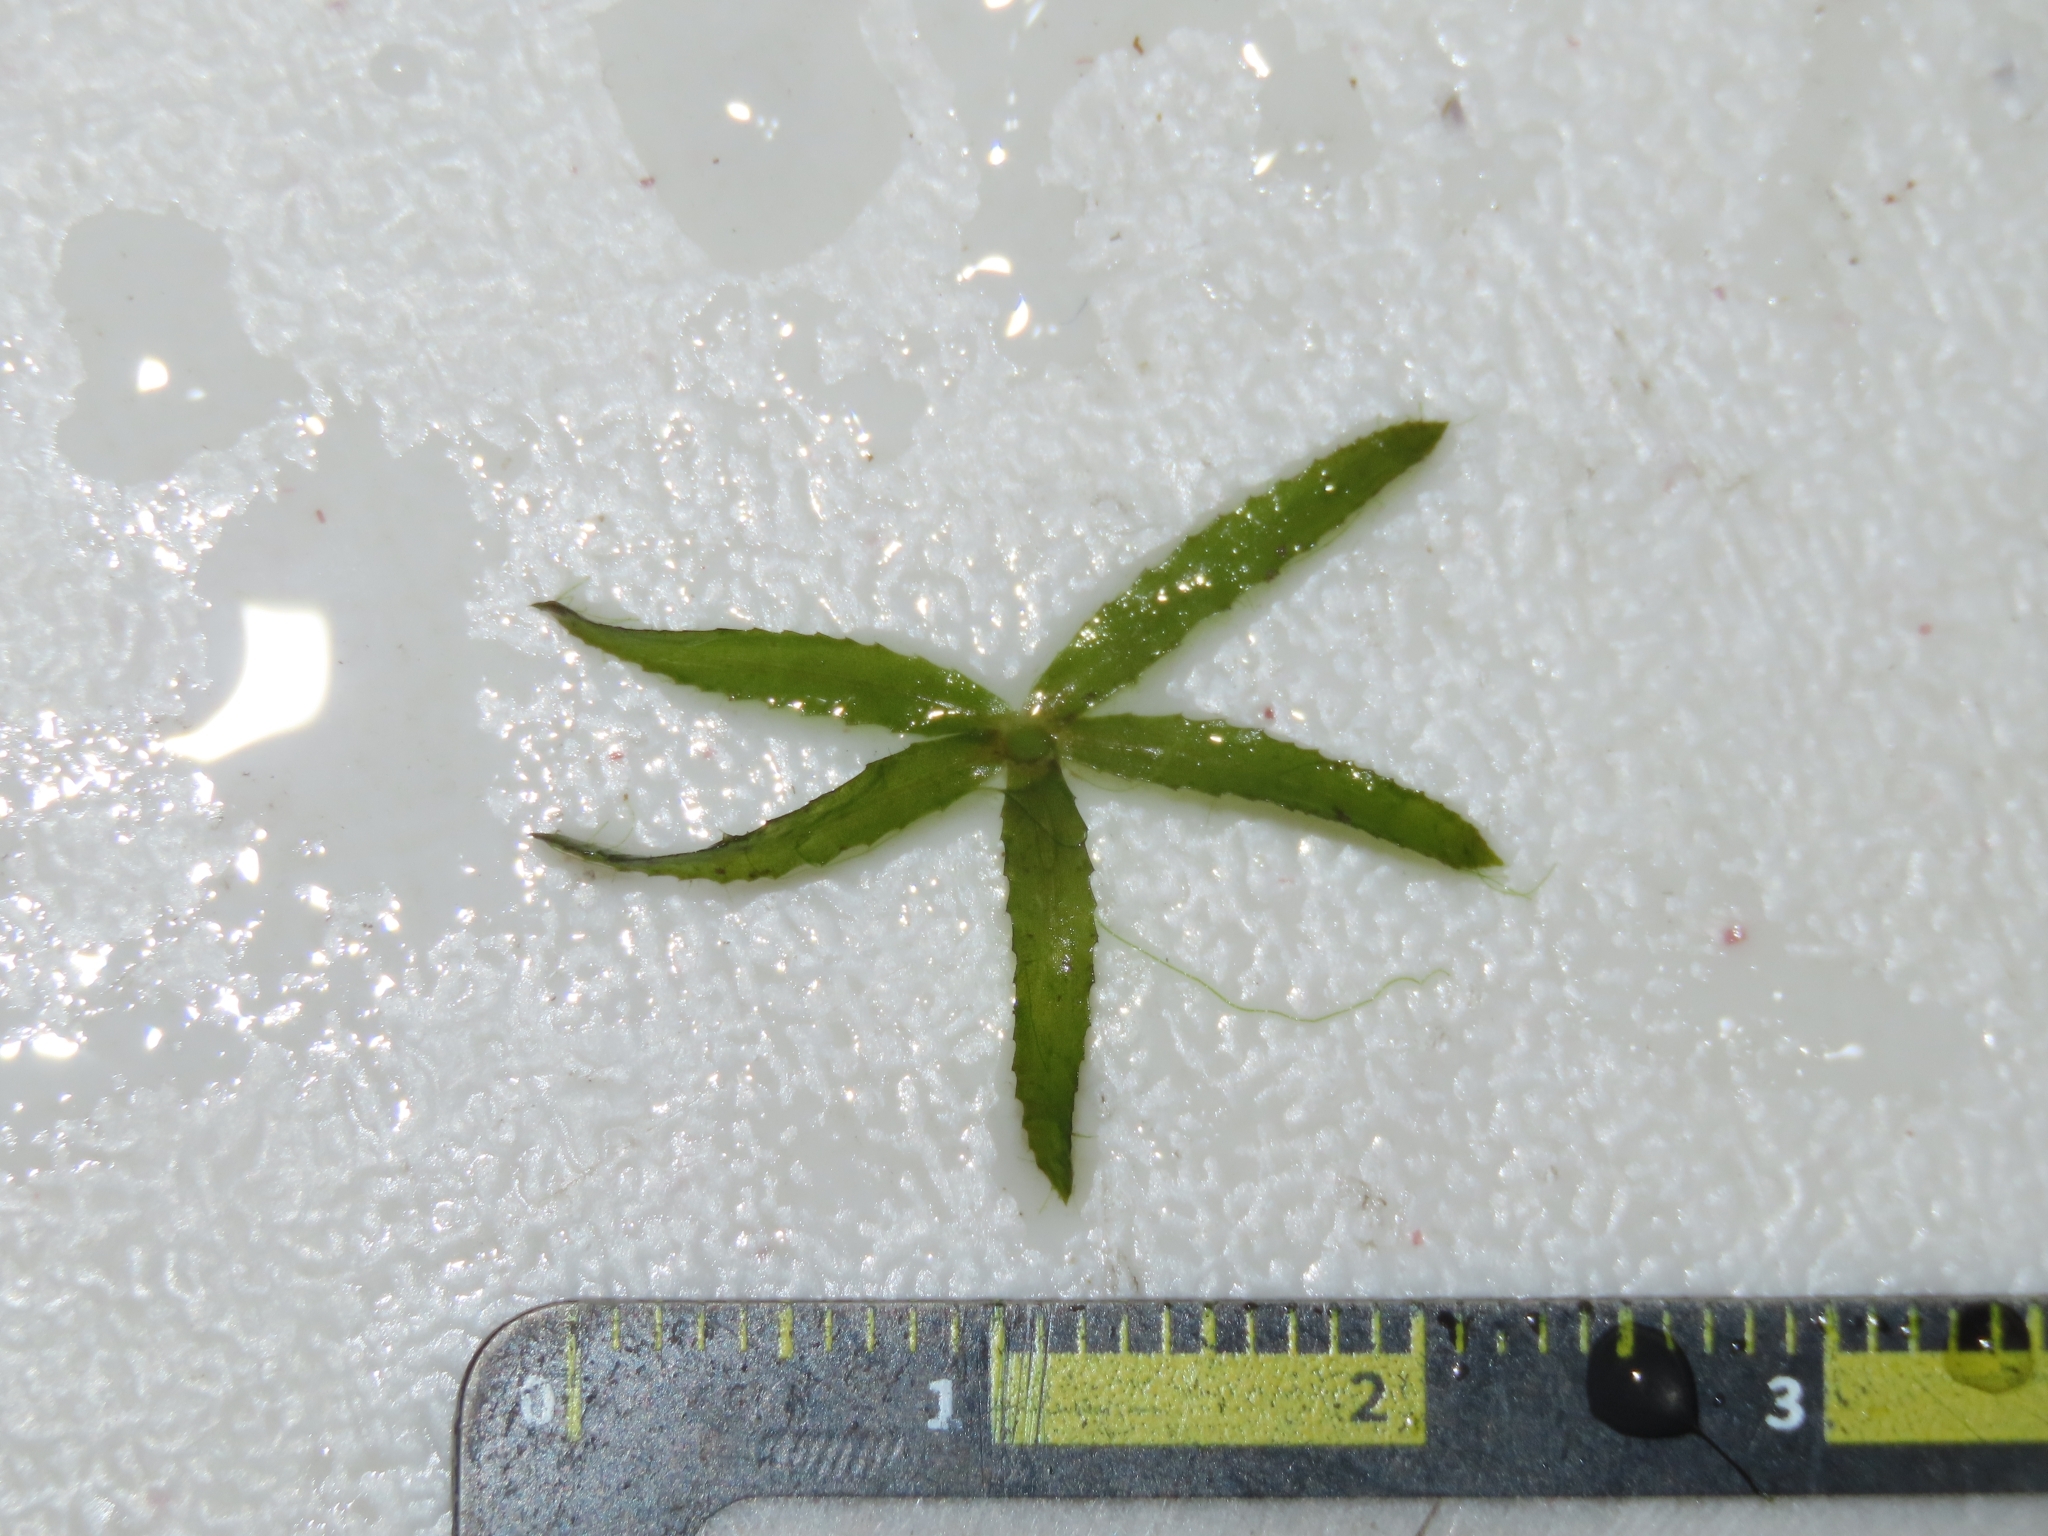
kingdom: Plantae
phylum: Tracheophyta
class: Liliopsida
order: Alismatales
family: Hydrocharitaceae
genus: Hydrilla
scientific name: Hydrilla verticillata
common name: Florida-elodea
